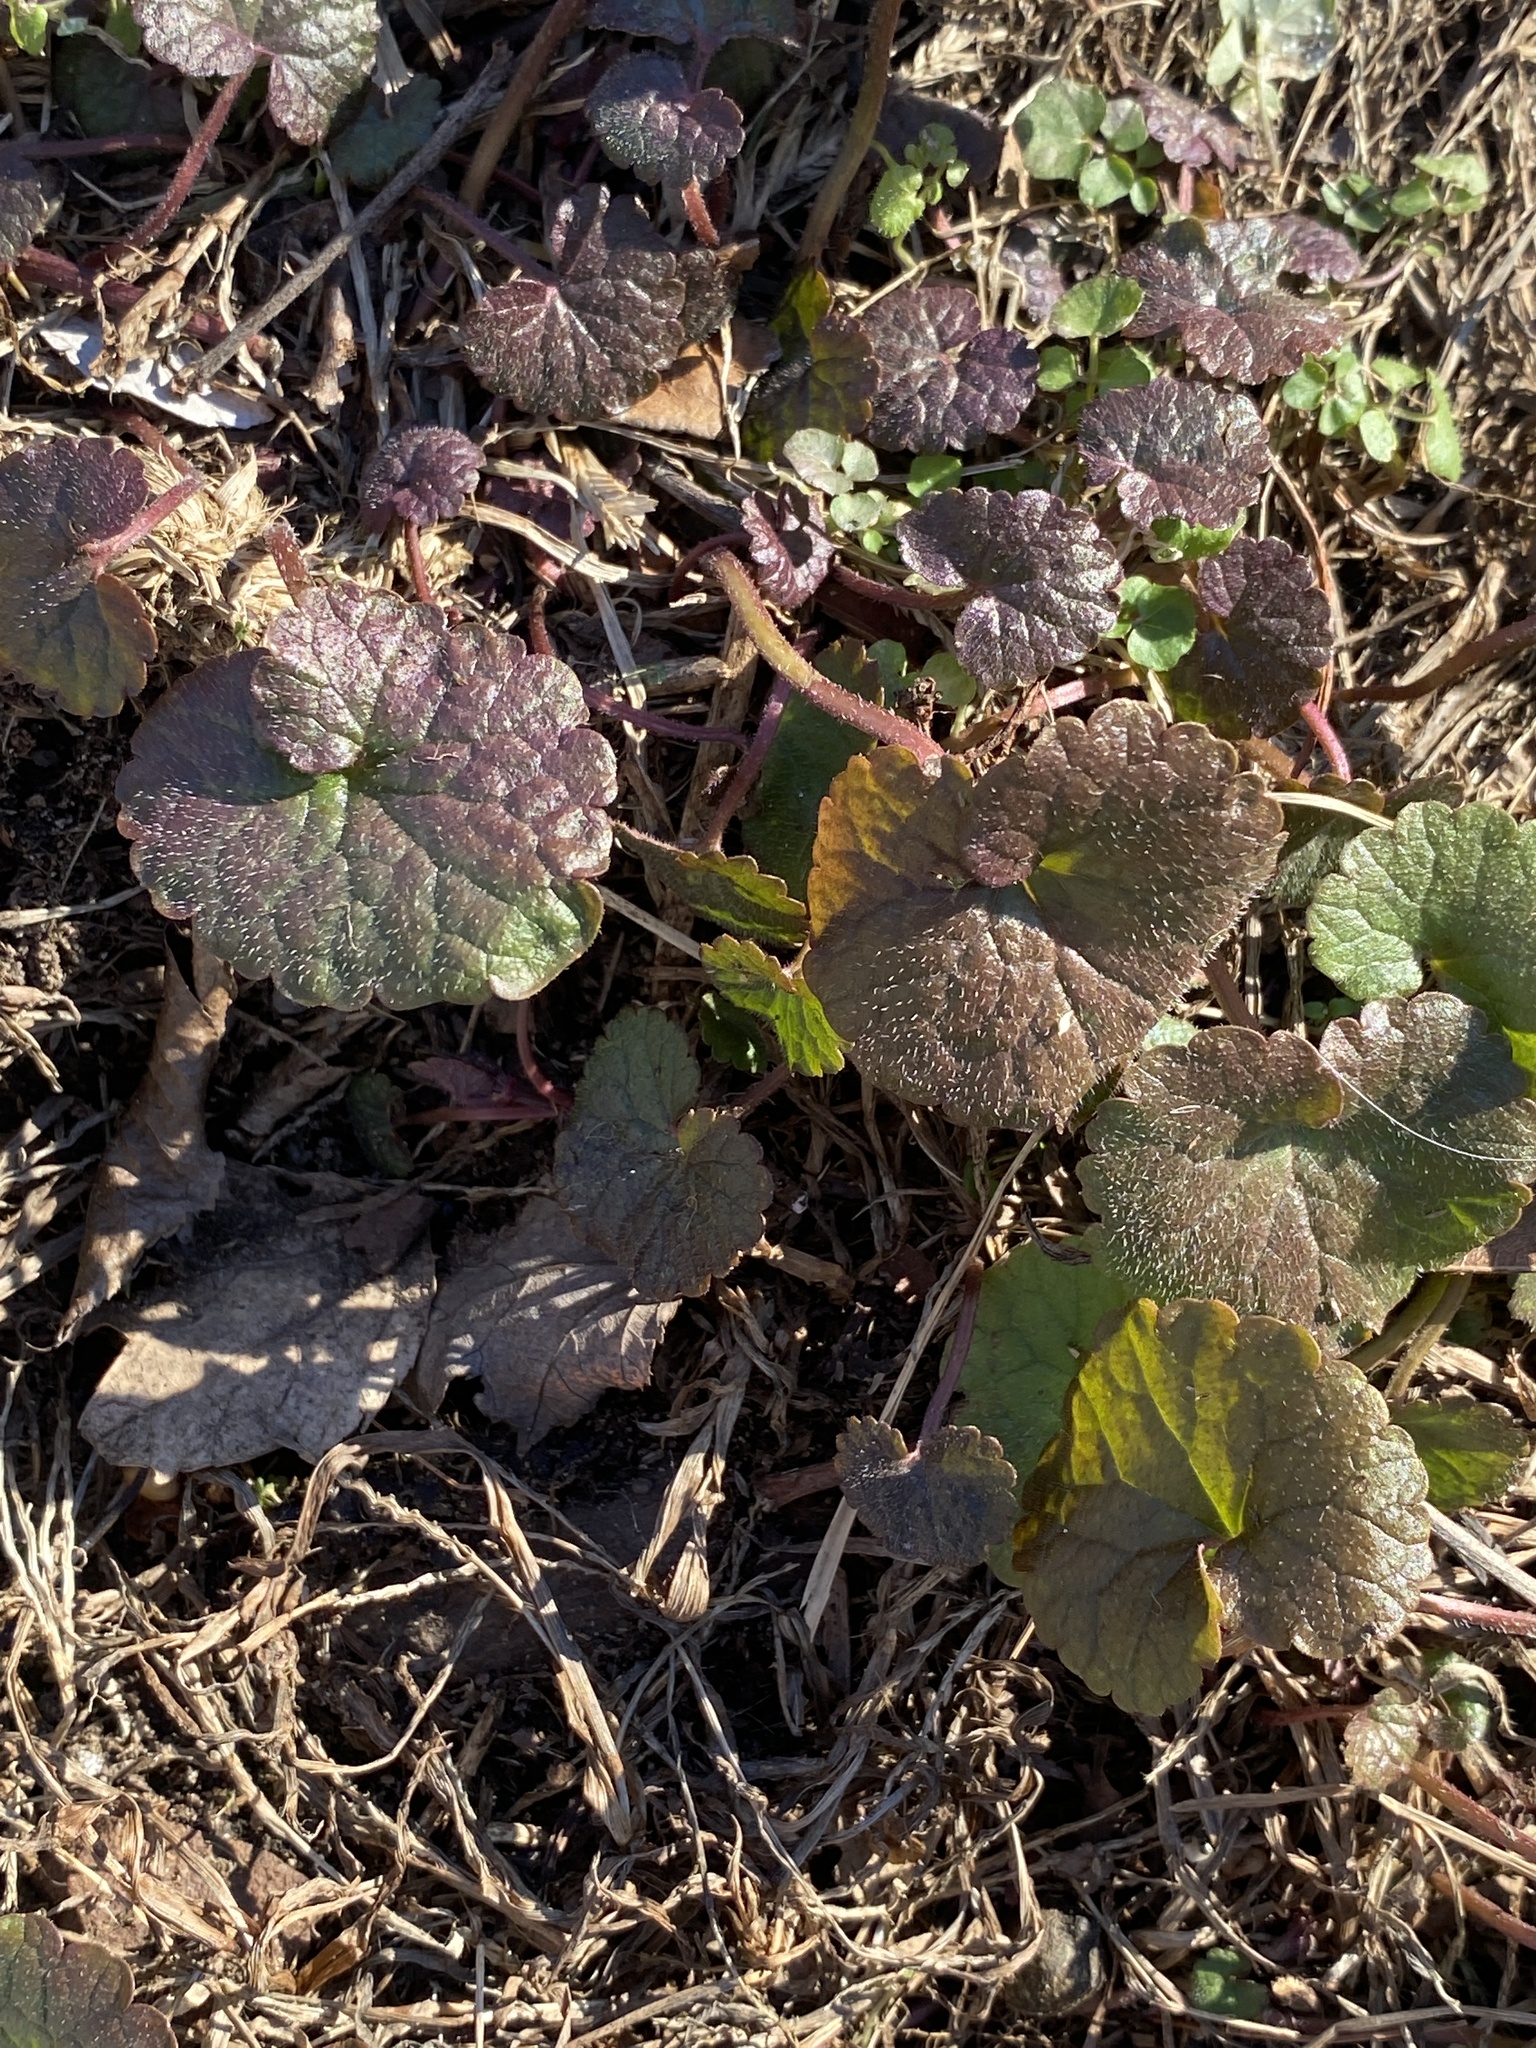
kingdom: Plantae
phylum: Tracheophyta
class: Magnoliopsida
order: Lamiales
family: Lamiaceae
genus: Glechoma
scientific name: Glechoma hederacea
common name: Ground ivy
